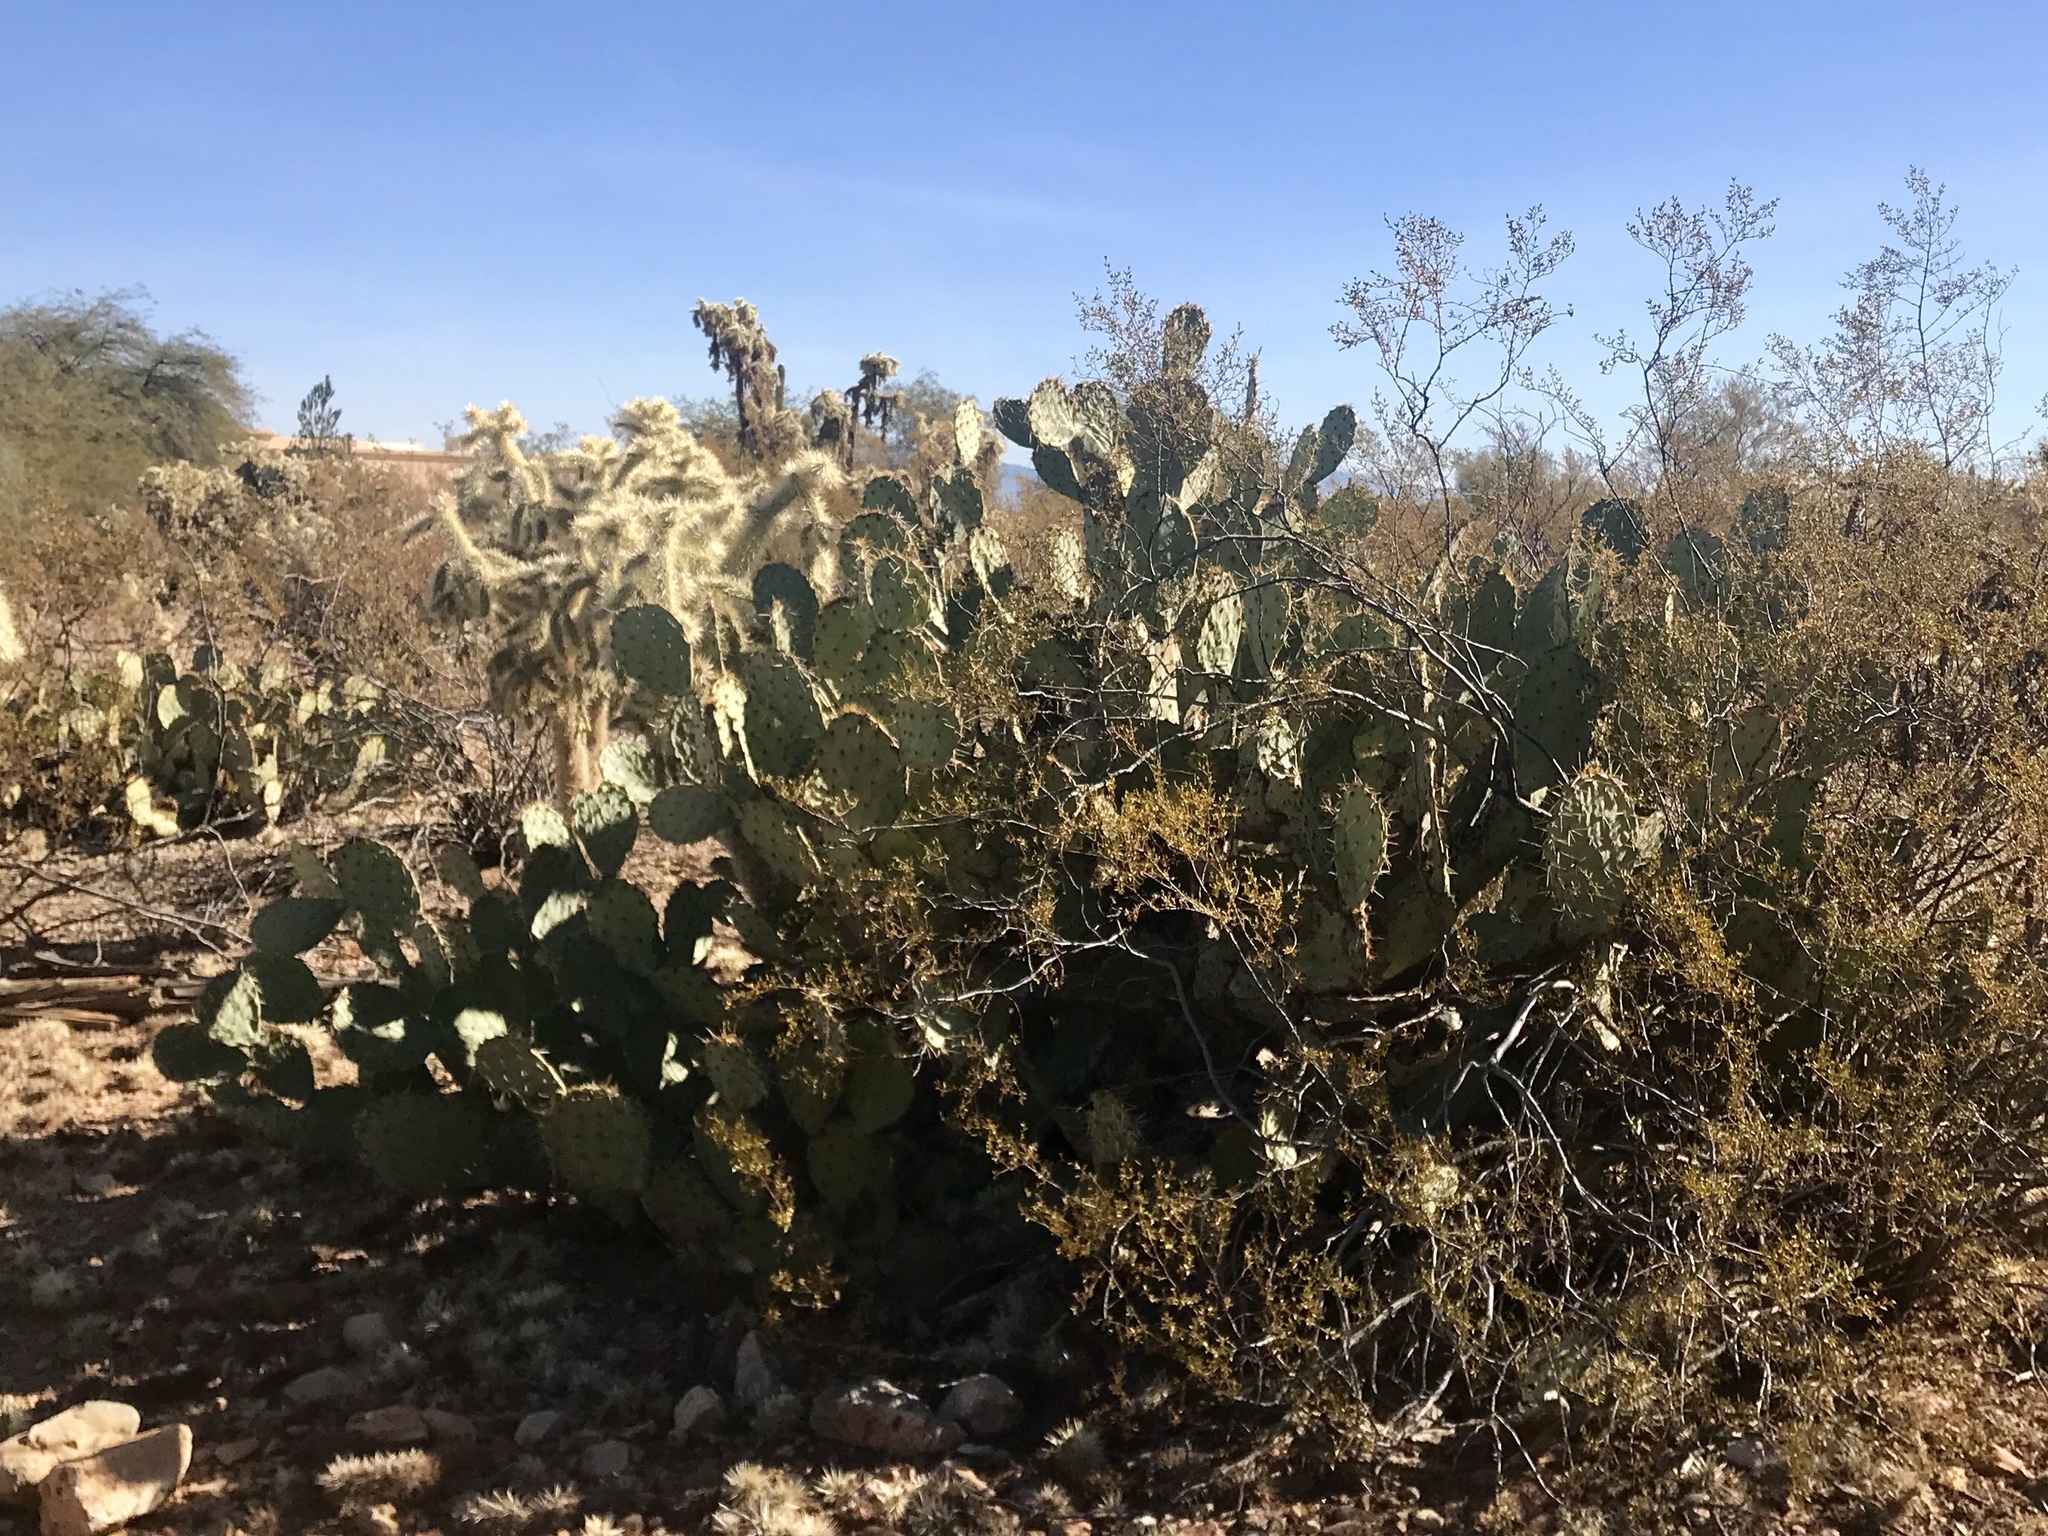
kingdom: Plantae
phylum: Tracheophyta
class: Magnoliopsida
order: Caryophyllales
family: Cactaceae
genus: Opuntia
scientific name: Opuntia engelmannii
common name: Cactus-apple
